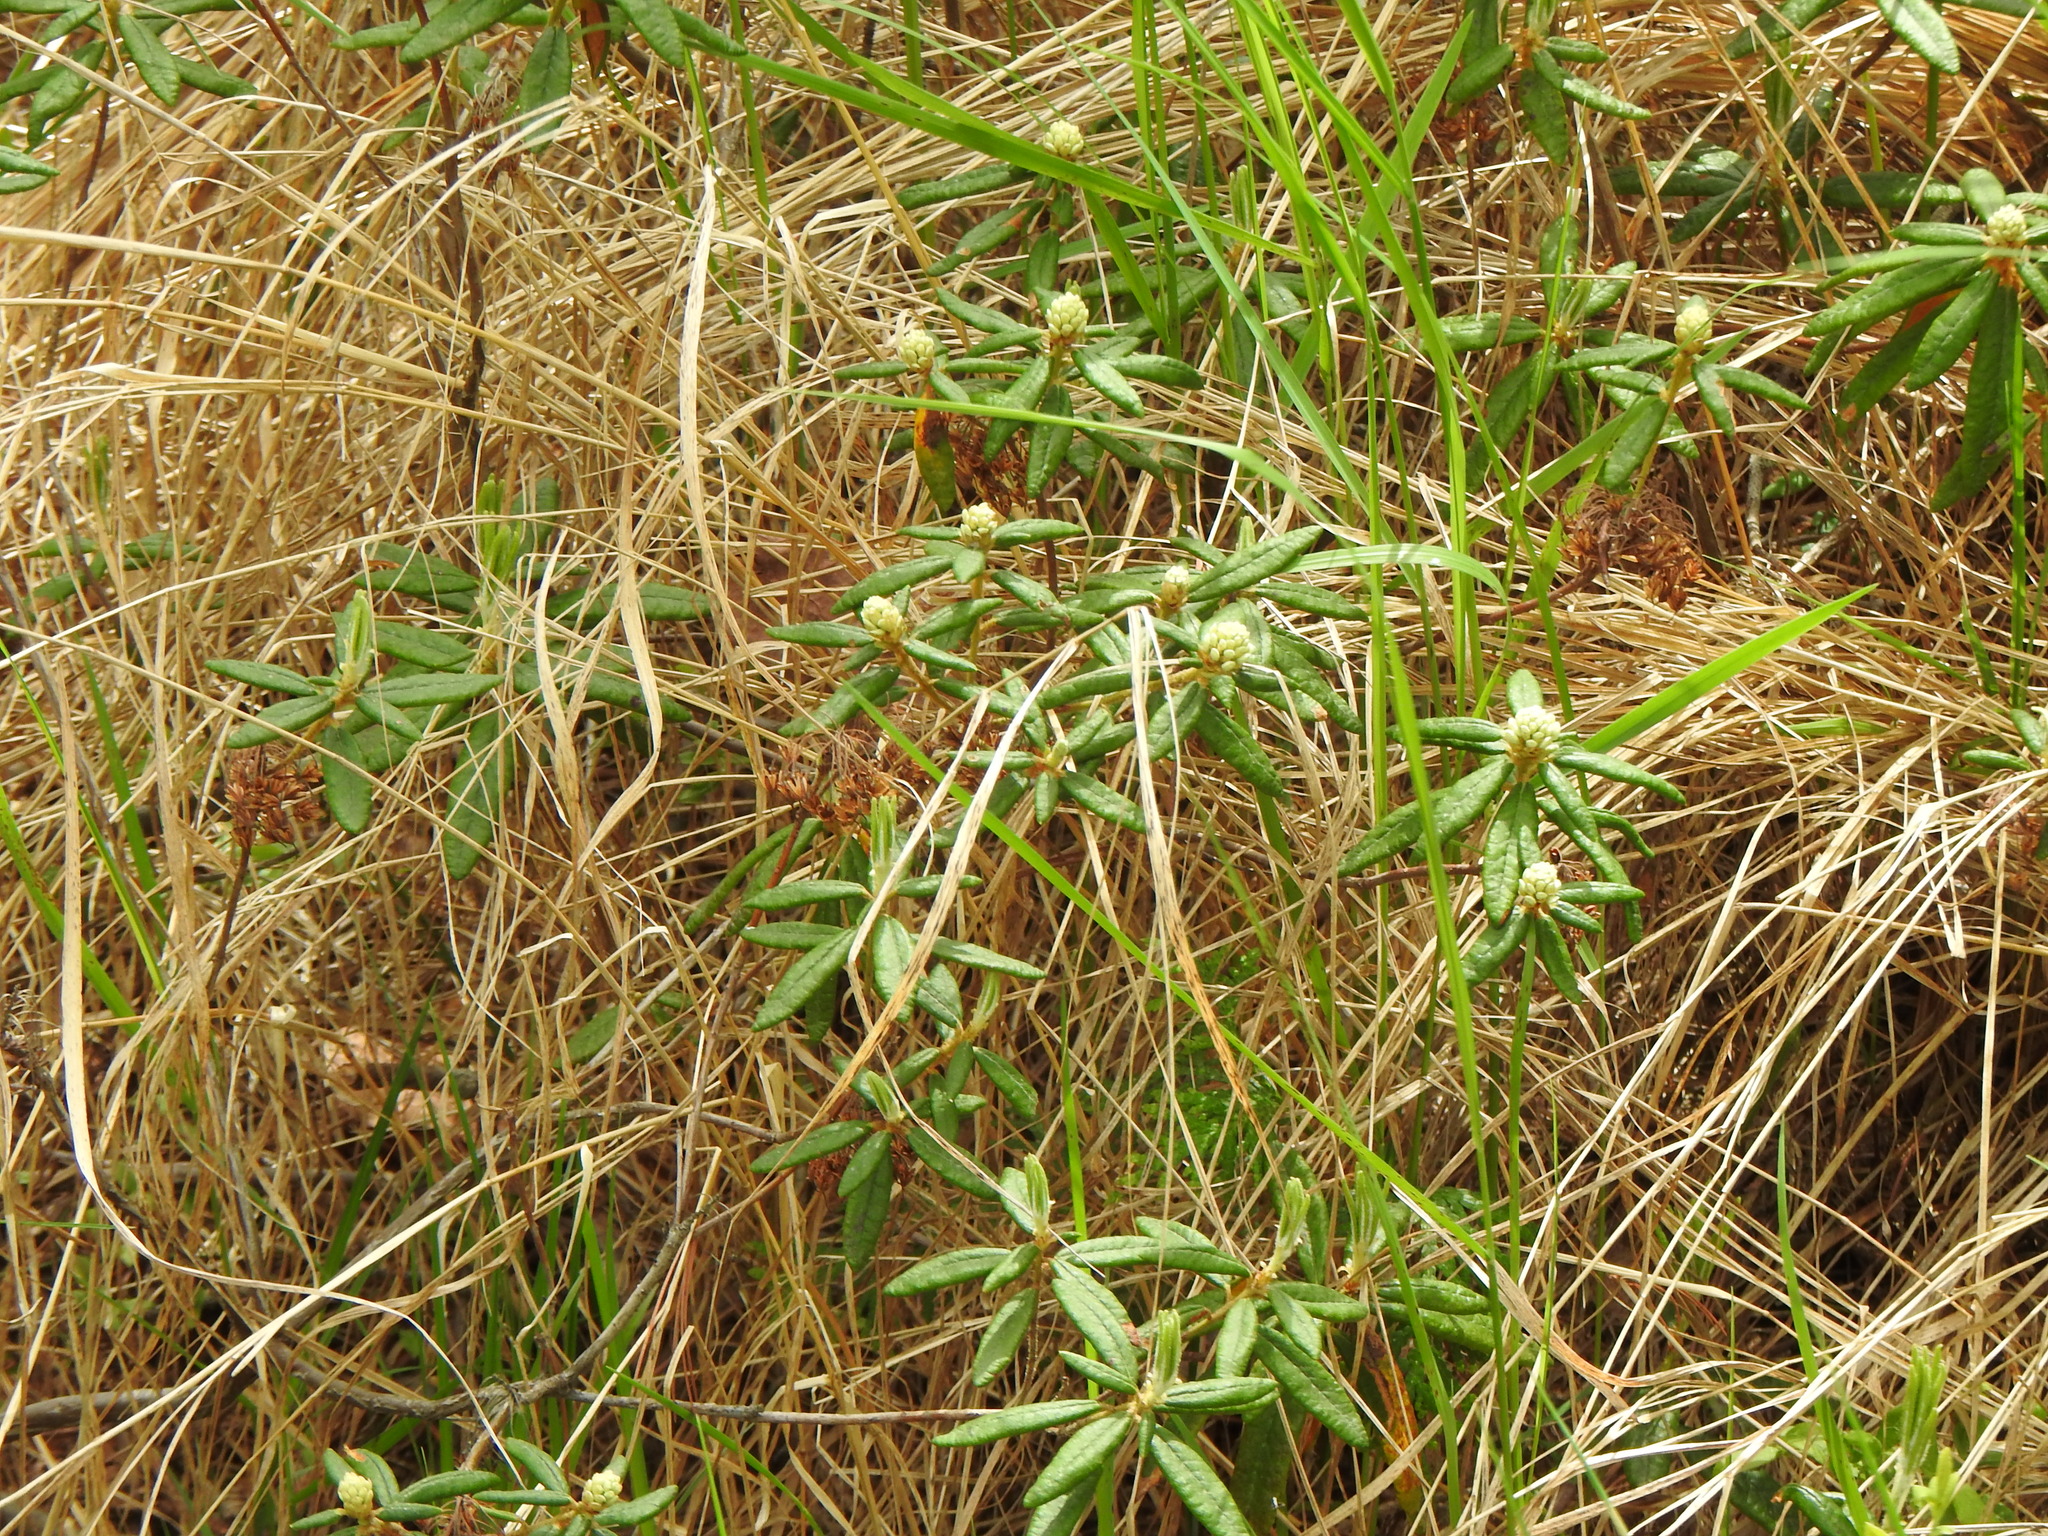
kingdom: Plantae
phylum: Tracheophyta
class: Magnoliopsida
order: Ericales
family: Ericaceae
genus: Rhododendron
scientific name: Rhododendron groenlandicum
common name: Bog labrador tea
